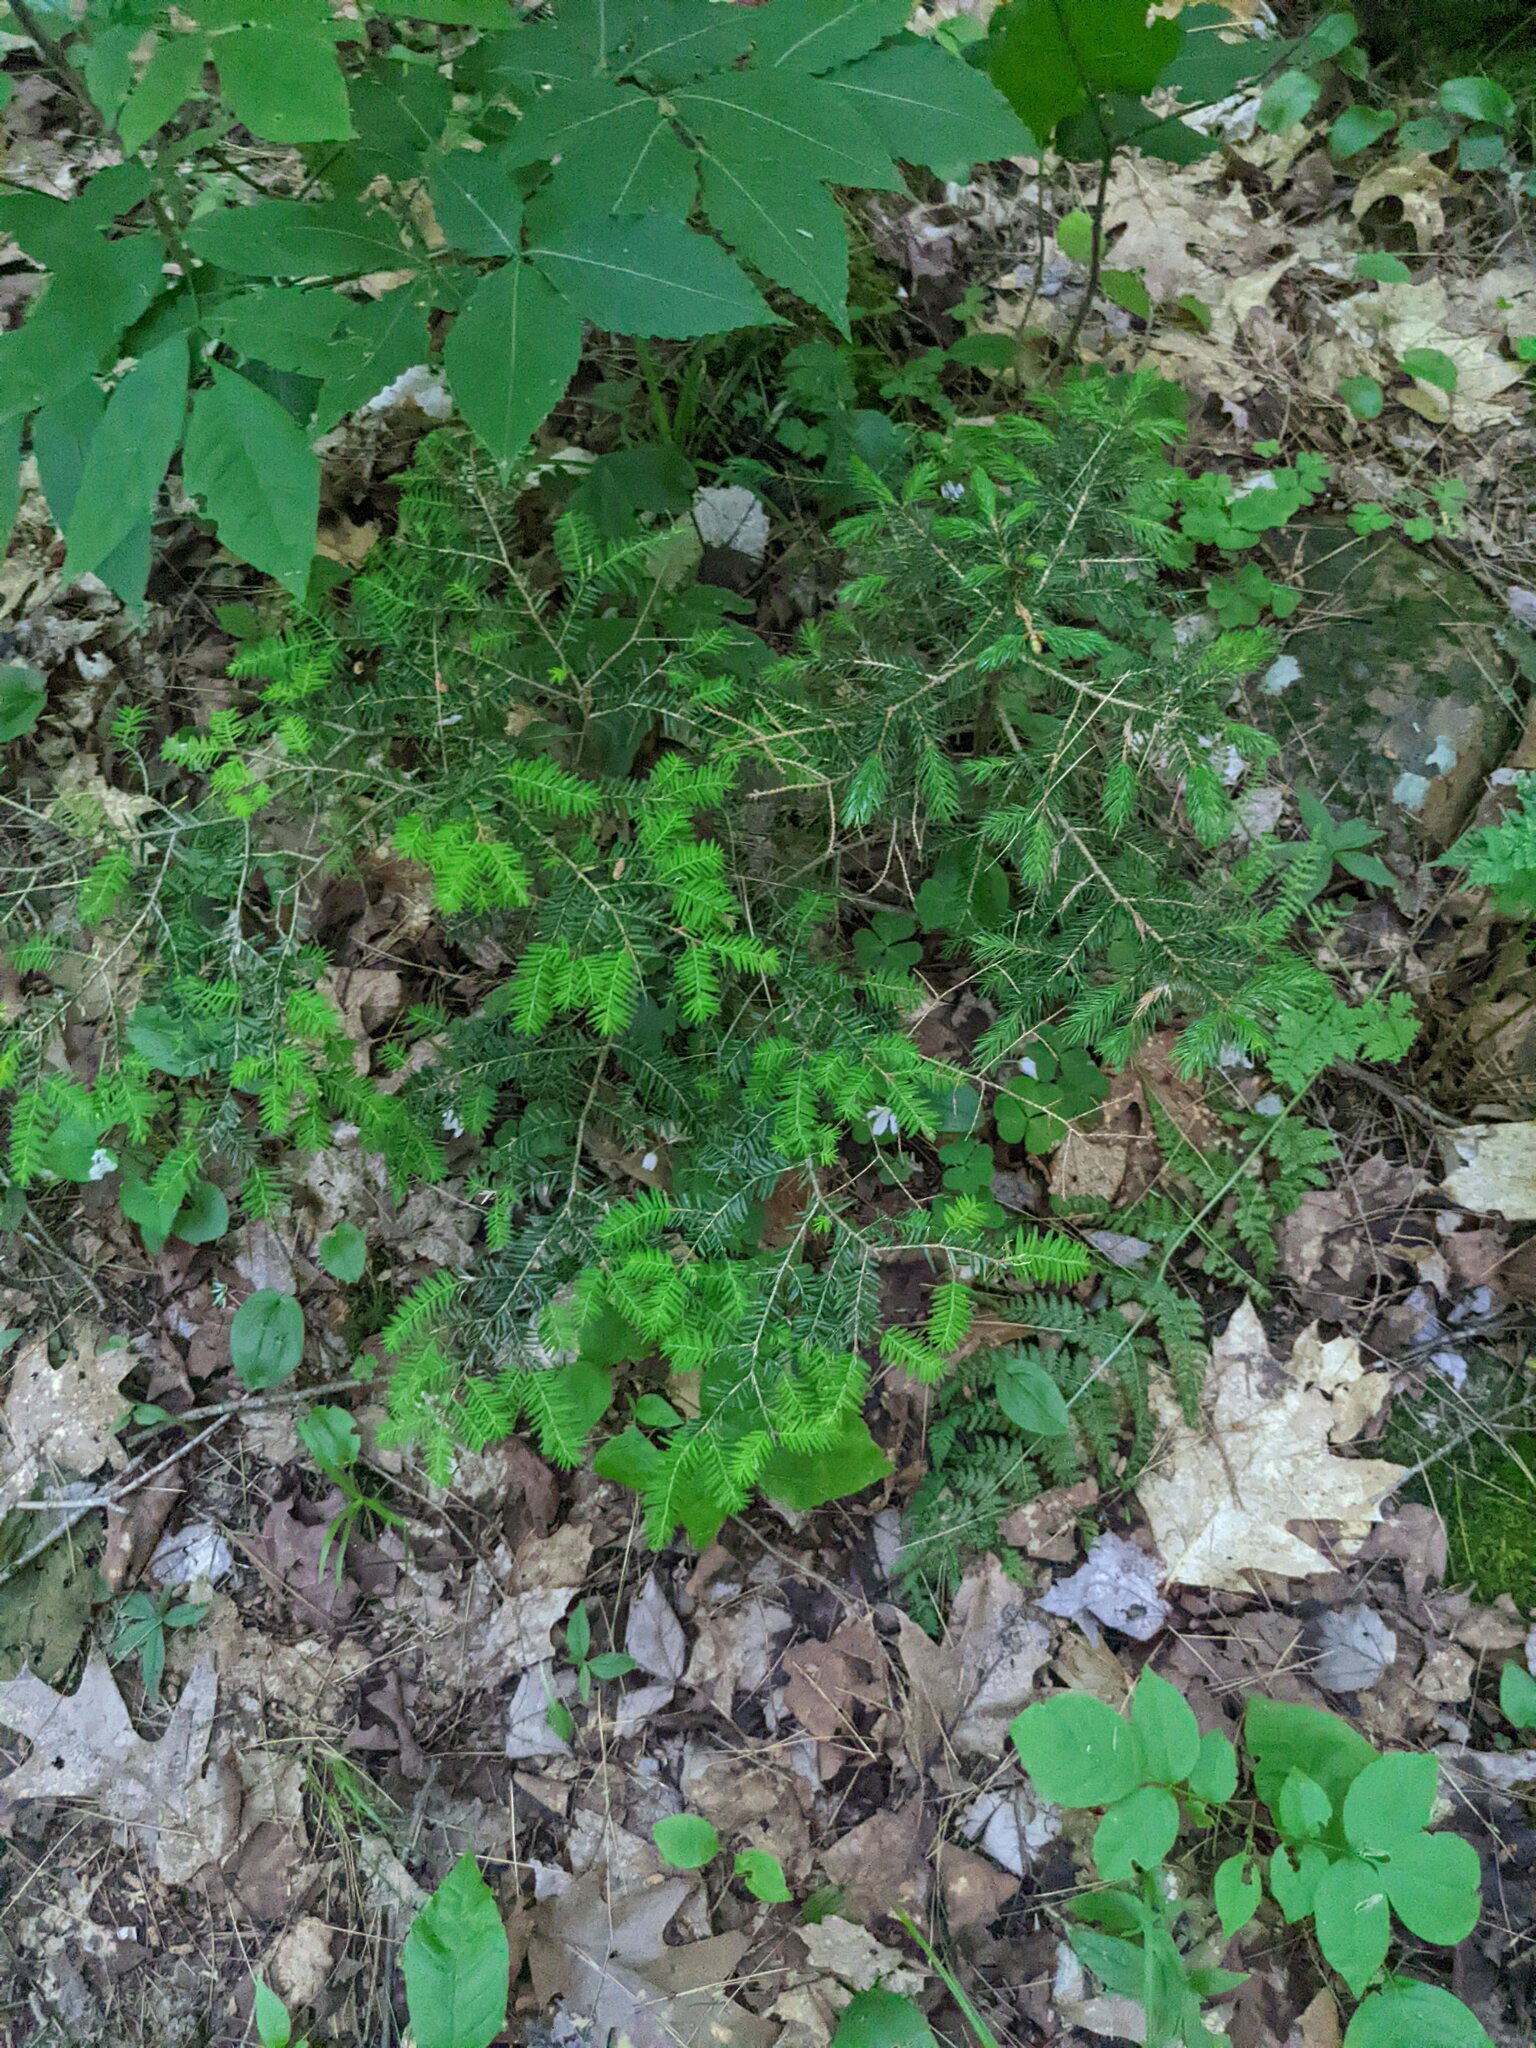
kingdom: Plantae
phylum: Tracheophyta
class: Pinopsida
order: Pinales
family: Pinaceae
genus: Tsuga
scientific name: Tsuga canadensis
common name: Eastern hemlock
